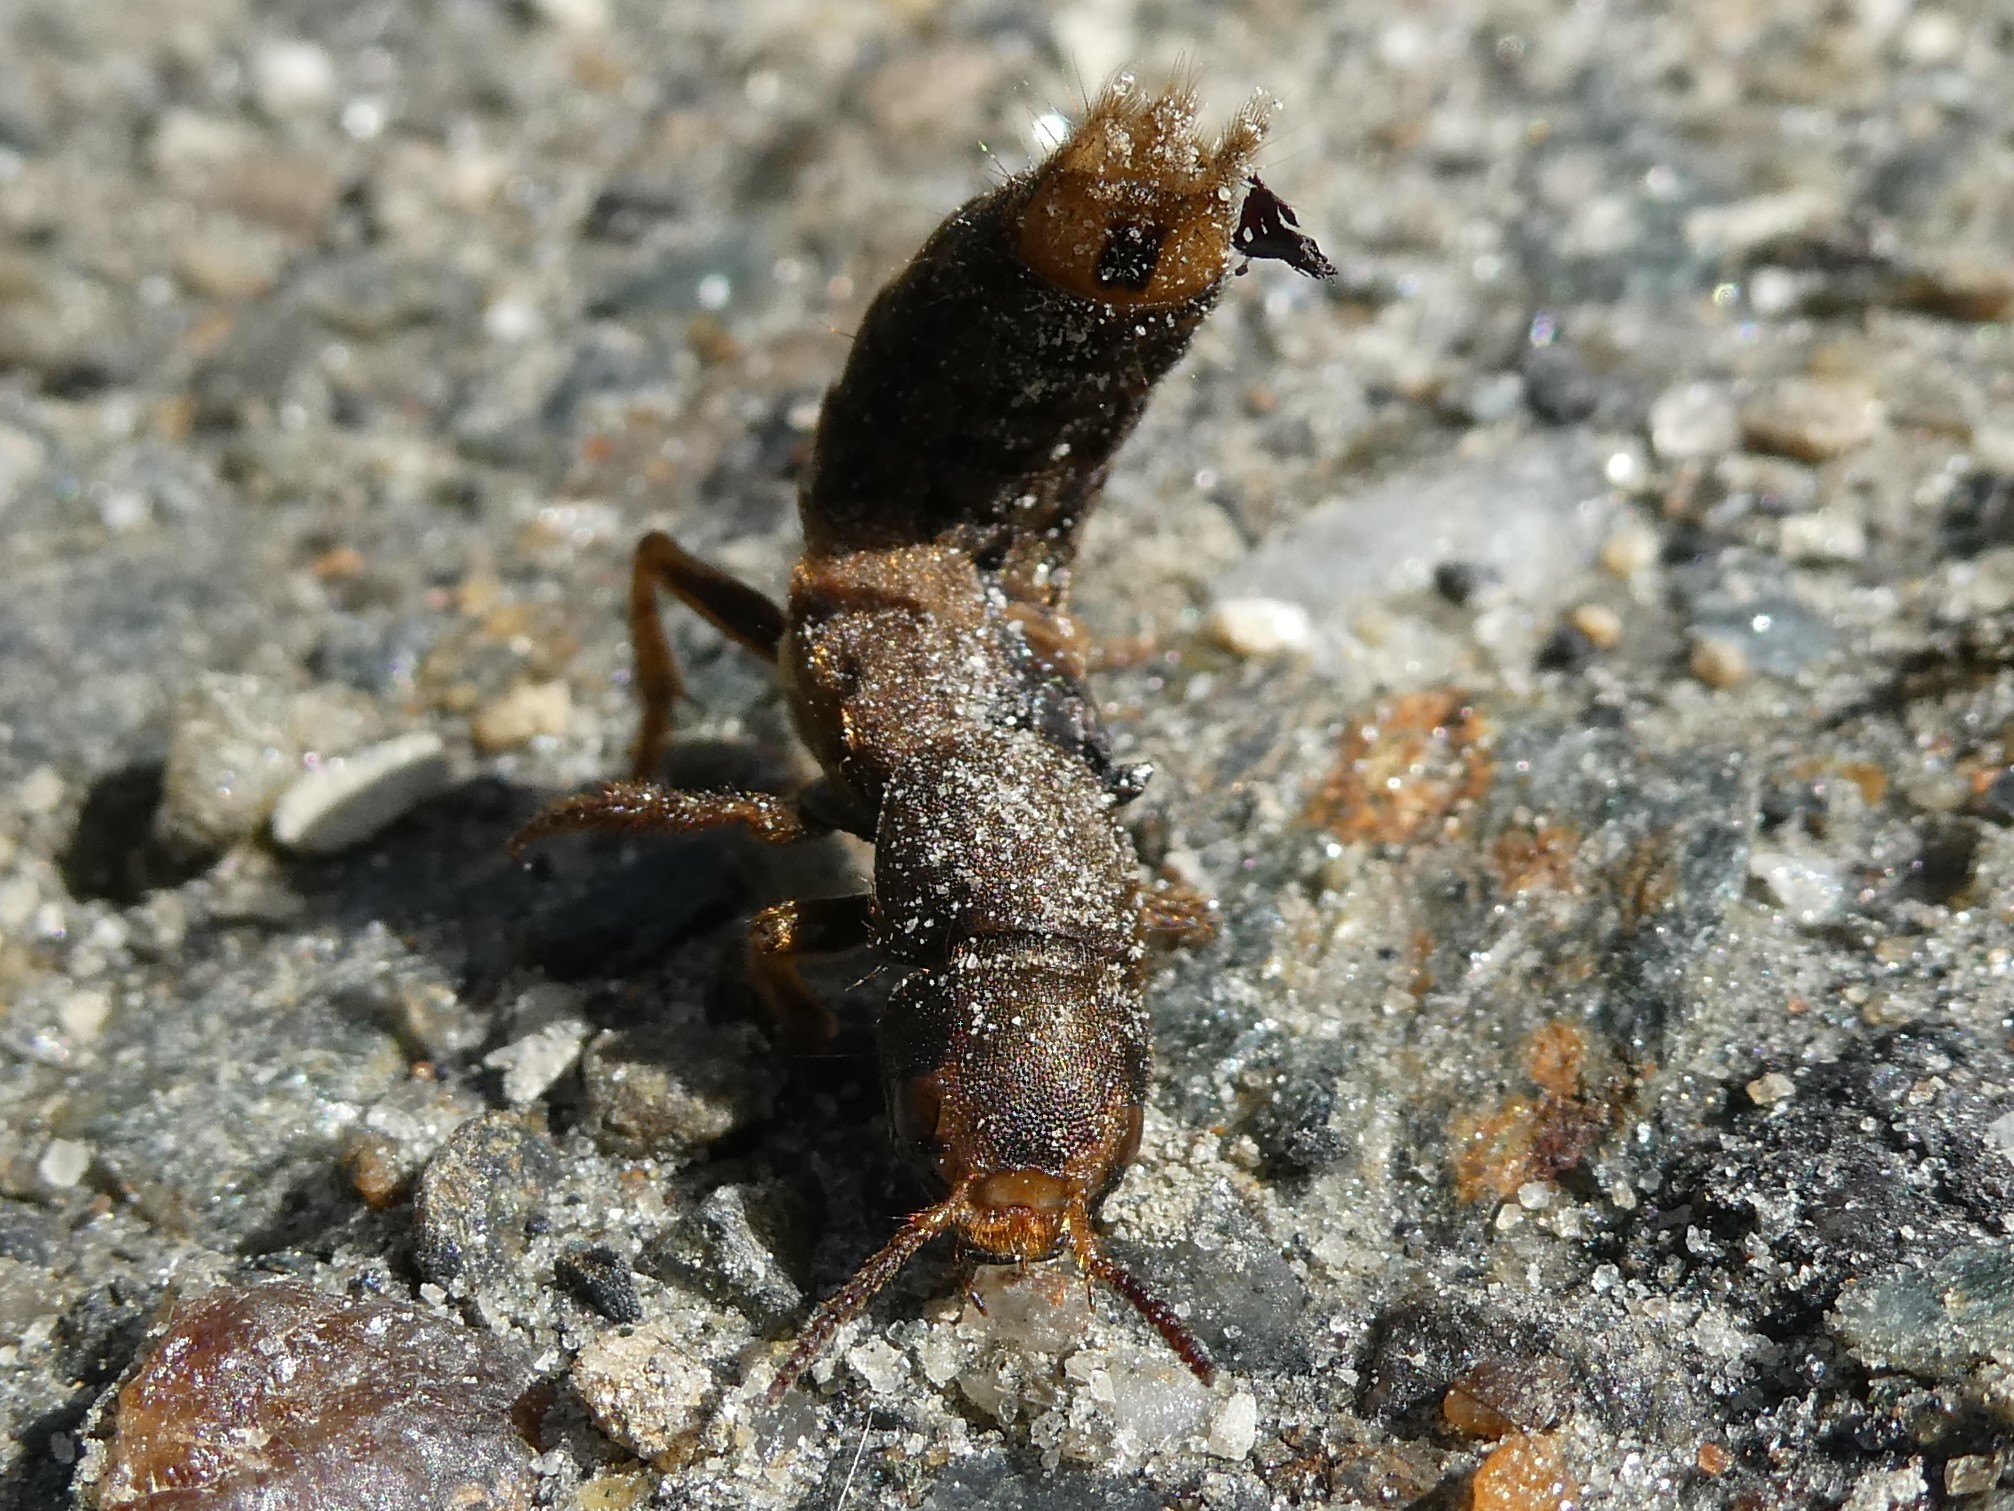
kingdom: Animalia
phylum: Arthropoda
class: Insecta
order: Coleoptera
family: Staphylinidae
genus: Platydracus
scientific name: Platydracus maculosus
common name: Brown rove beetle
